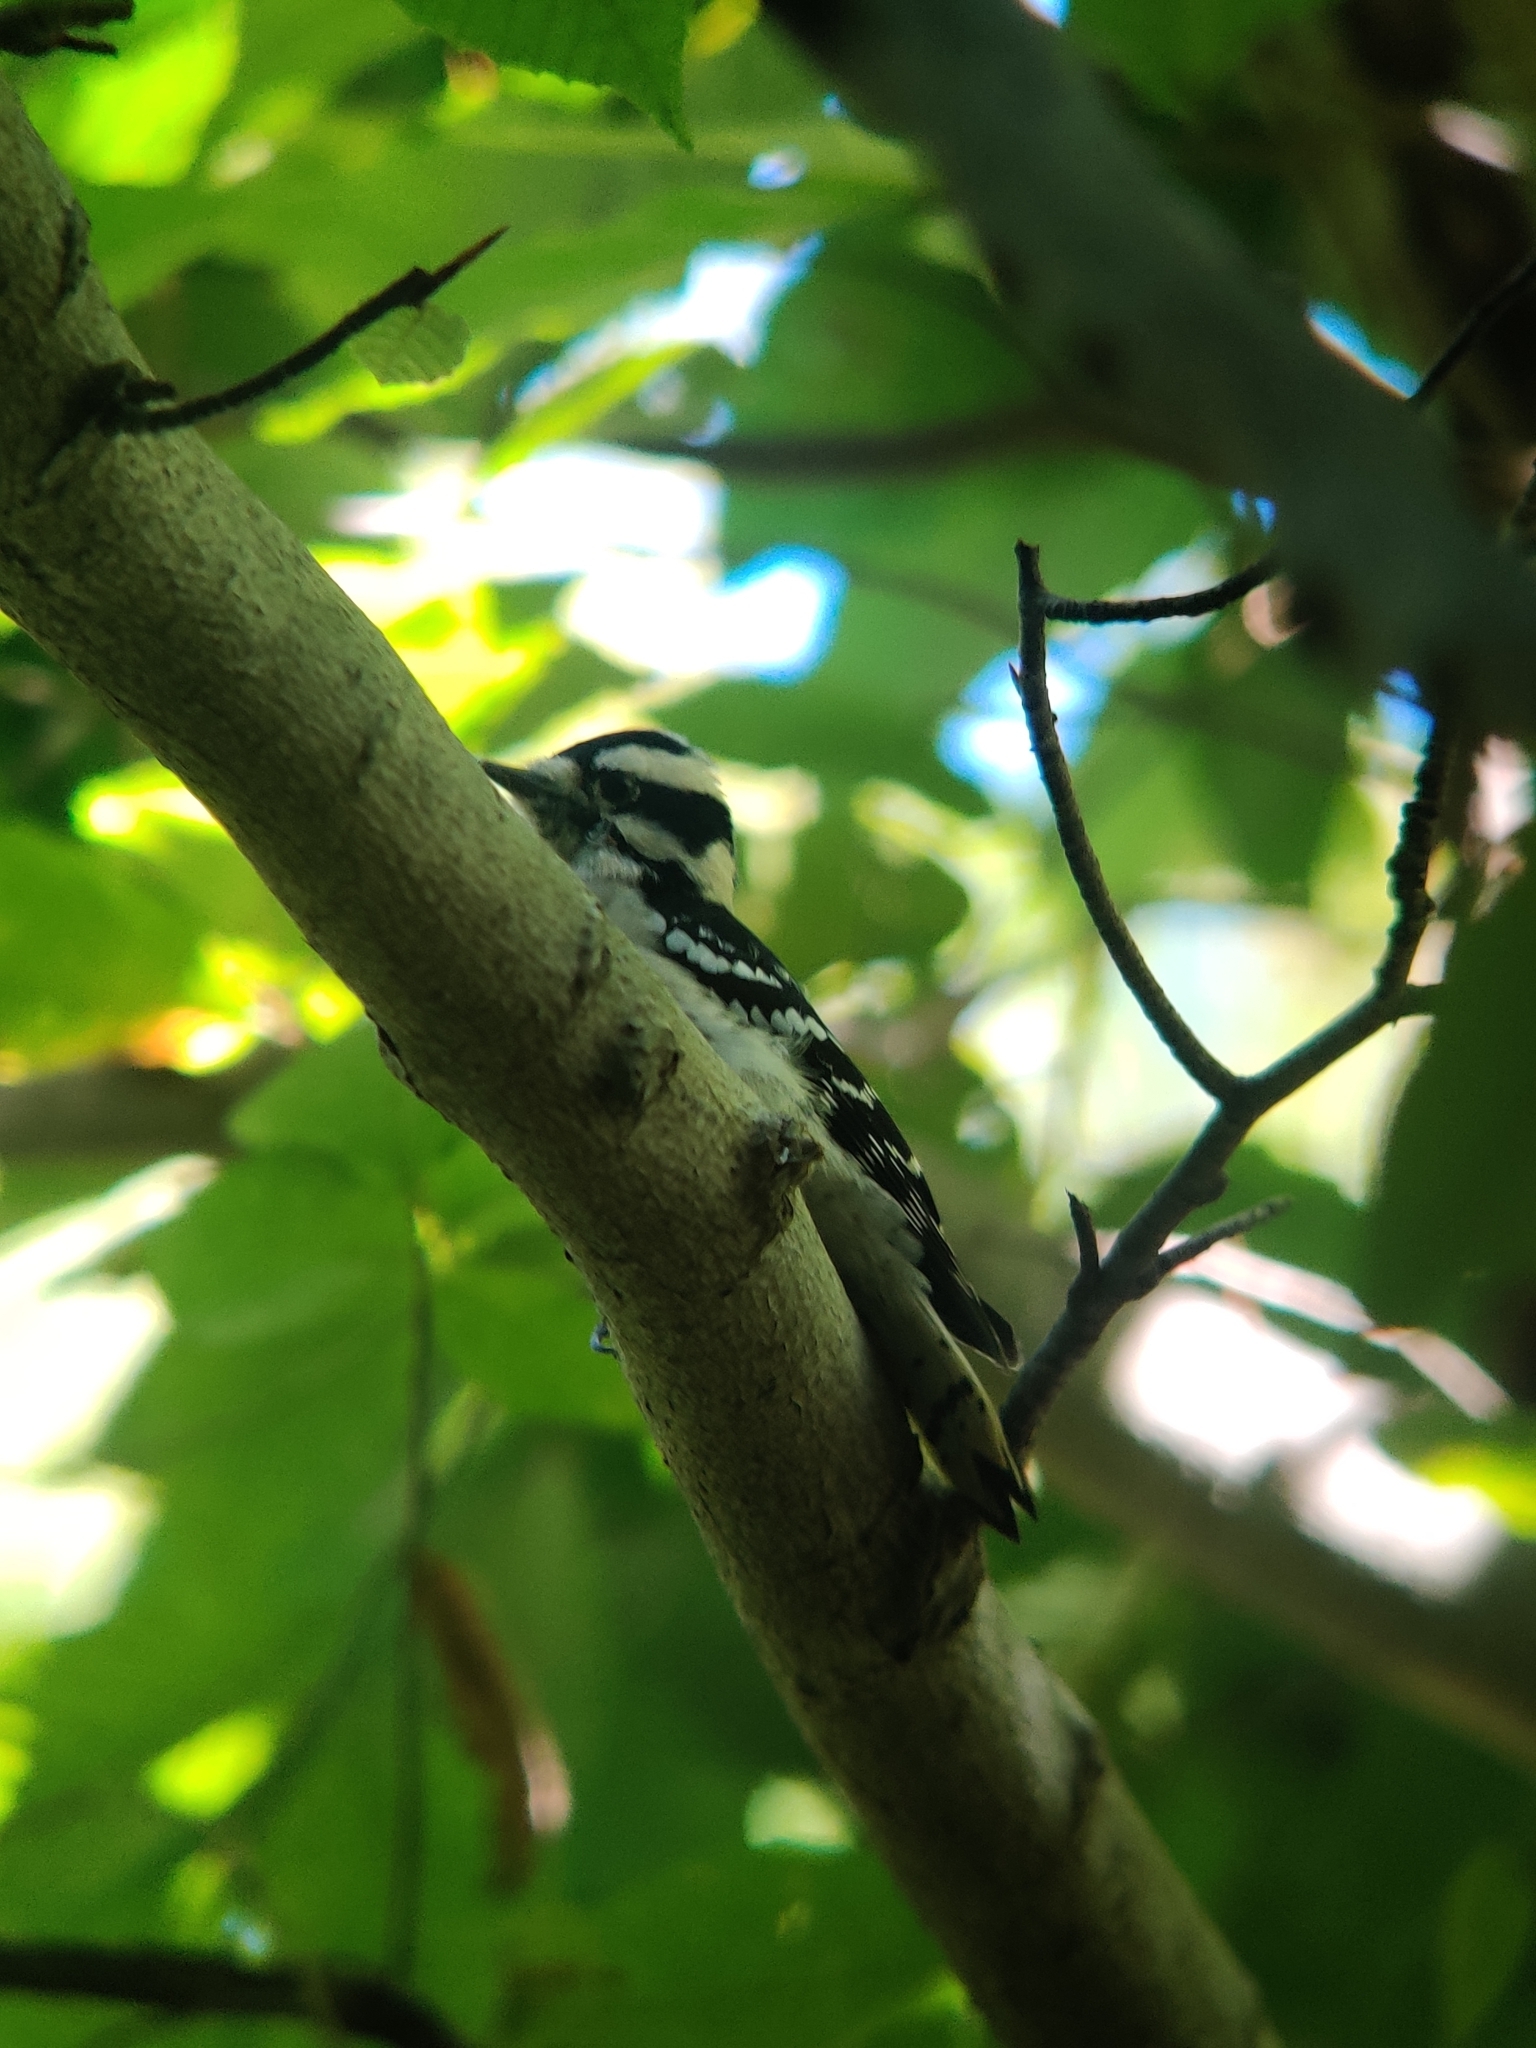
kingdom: Animalia
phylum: Chordata
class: Aves
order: Piciformes
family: Picidae
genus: Dryobates
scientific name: Dryobates pubescens
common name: Downy woodpecker
